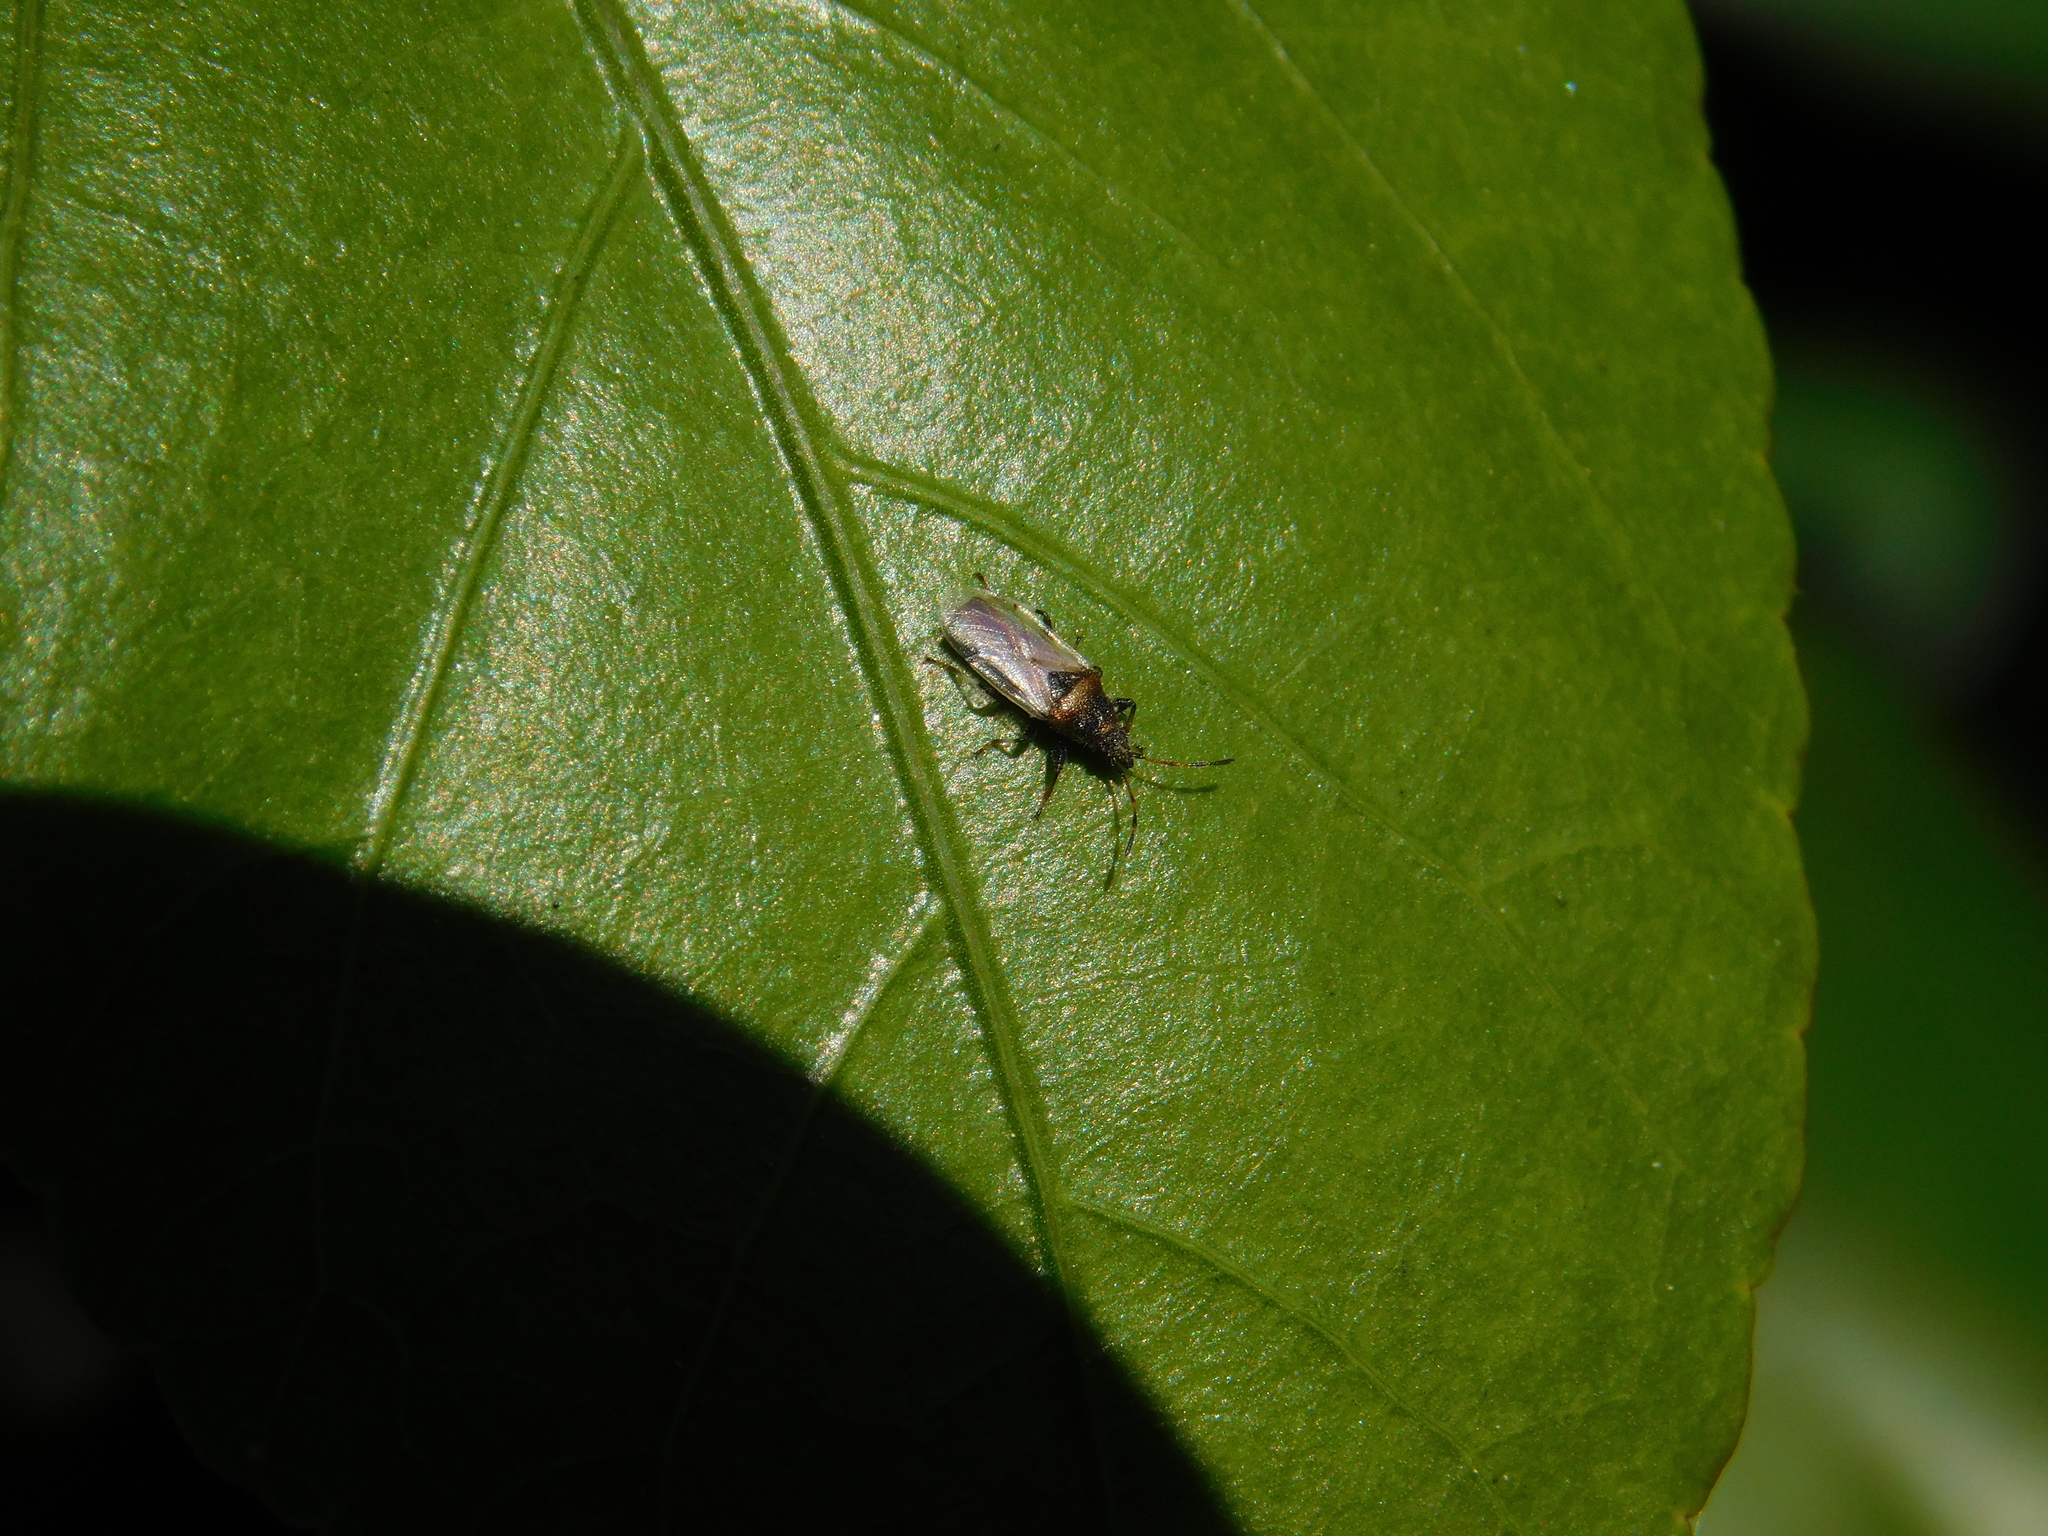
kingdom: Animalia
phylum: Arthropoda
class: Insecta
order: Hemiptera
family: Oxycarenidae
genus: Oxycarenus
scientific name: Oxycarenus hyalinipennis
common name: Cotton seed bug
